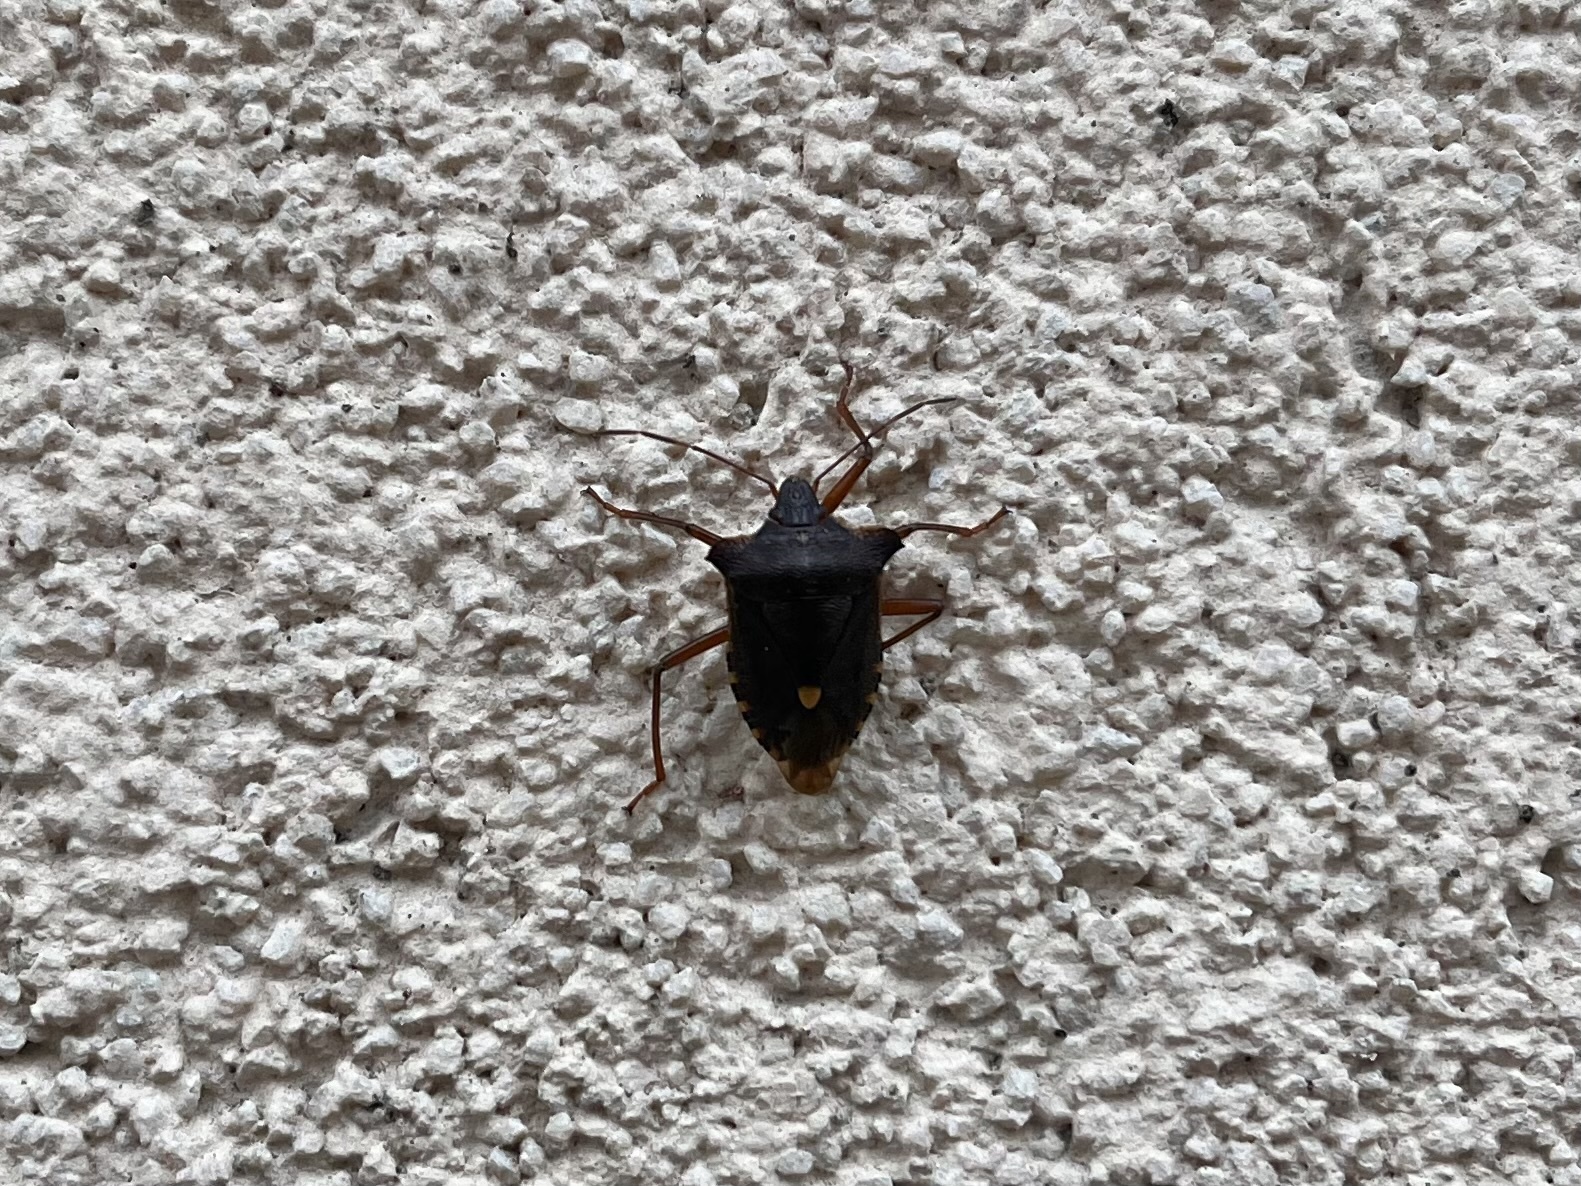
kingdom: Animalia
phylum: Arthropoda
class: Insecta
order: Hemiptera
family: Pentatomidae
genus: Pentatoma
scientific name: Pentatoma rufipes
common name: Forest bug
